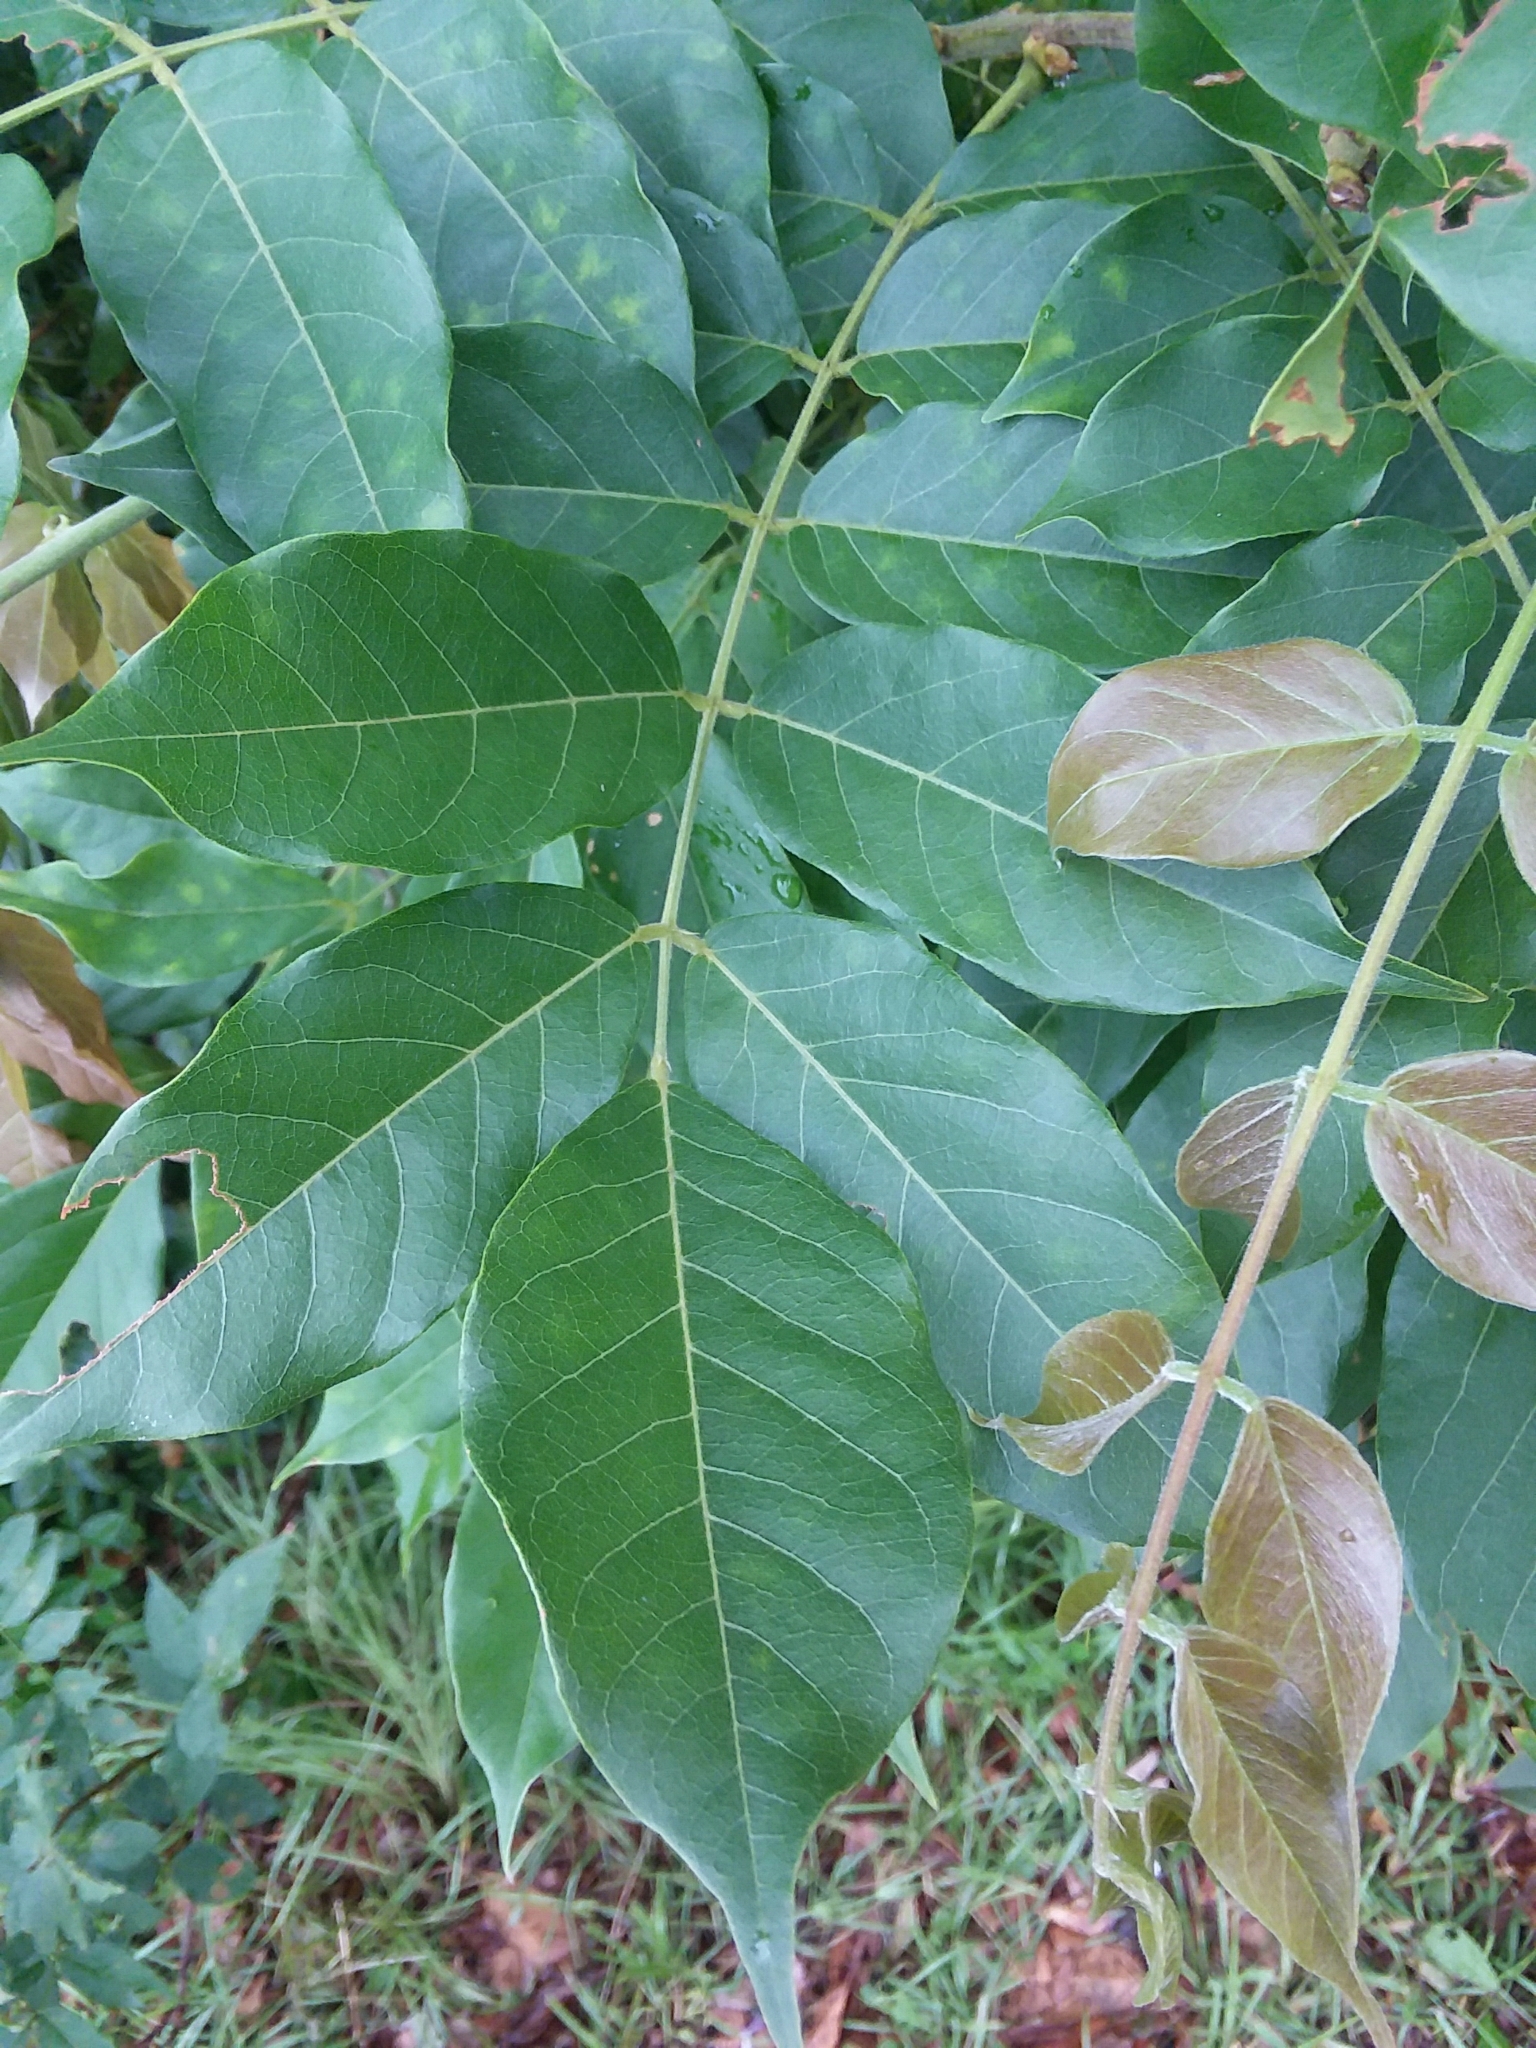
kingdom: Plantae
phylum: Tracheophyta
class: Magnoliopsida
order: Fabales
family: Fabaceae
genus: Wisteria
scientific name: Wisteria frutescens
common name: American wisteria
